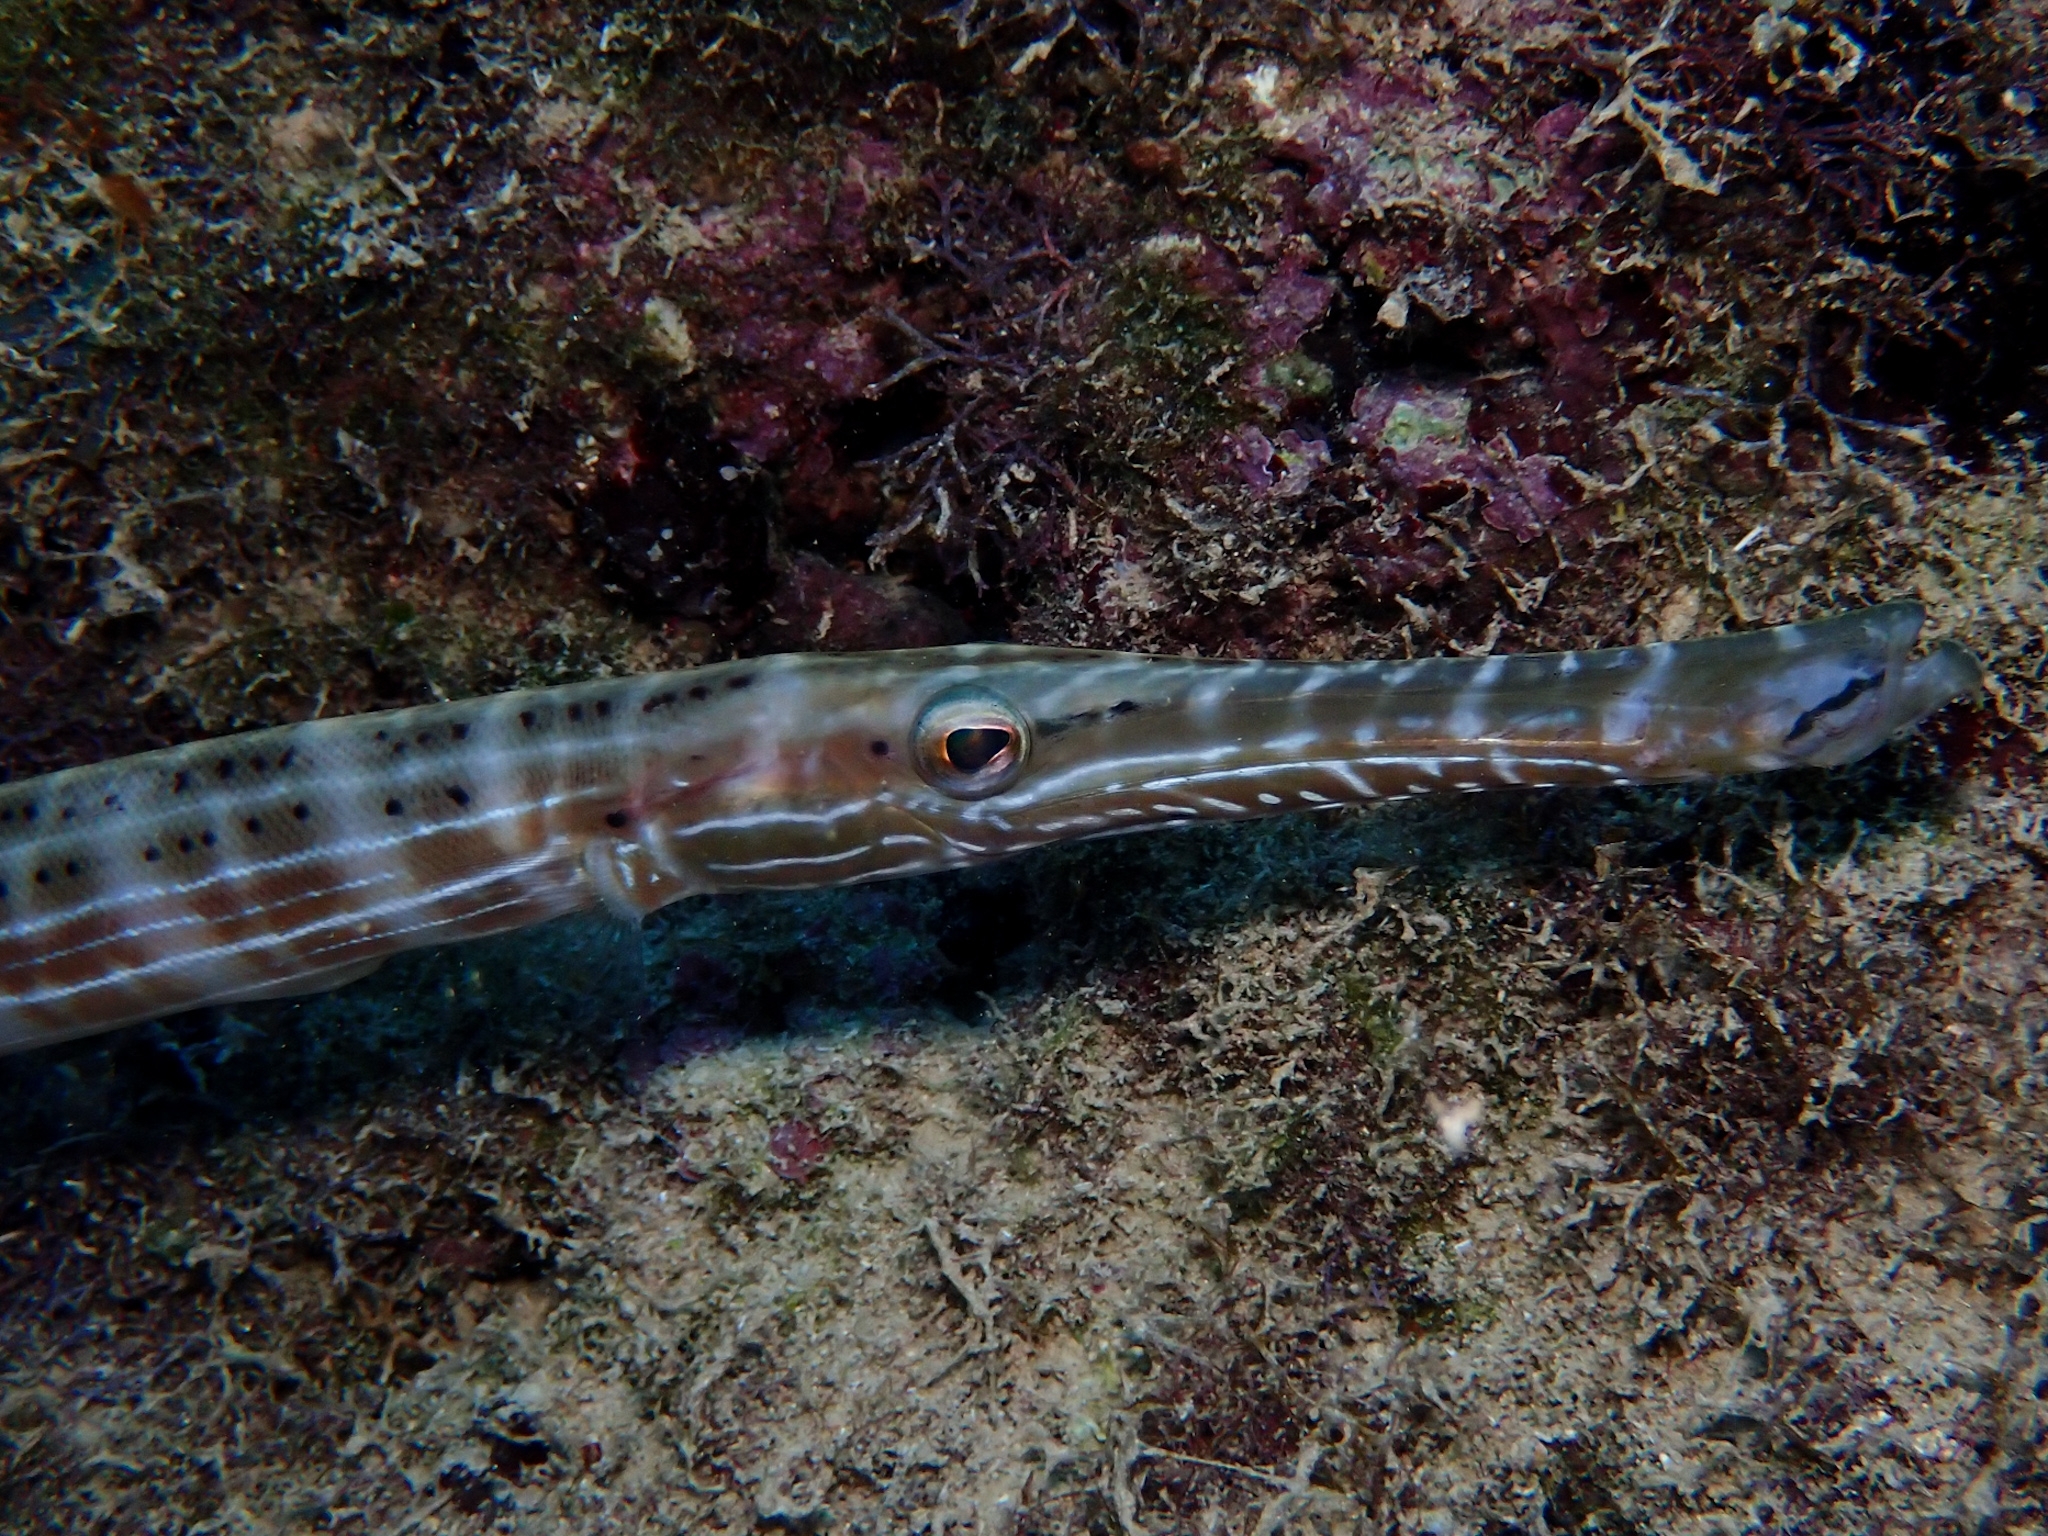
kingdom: Animalia
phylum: Chordata
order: Syngnathiformes
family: Aulostomidae
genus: Aulostomus
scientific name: Aulostomus maculatus
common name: West atlantic trumpetfish
